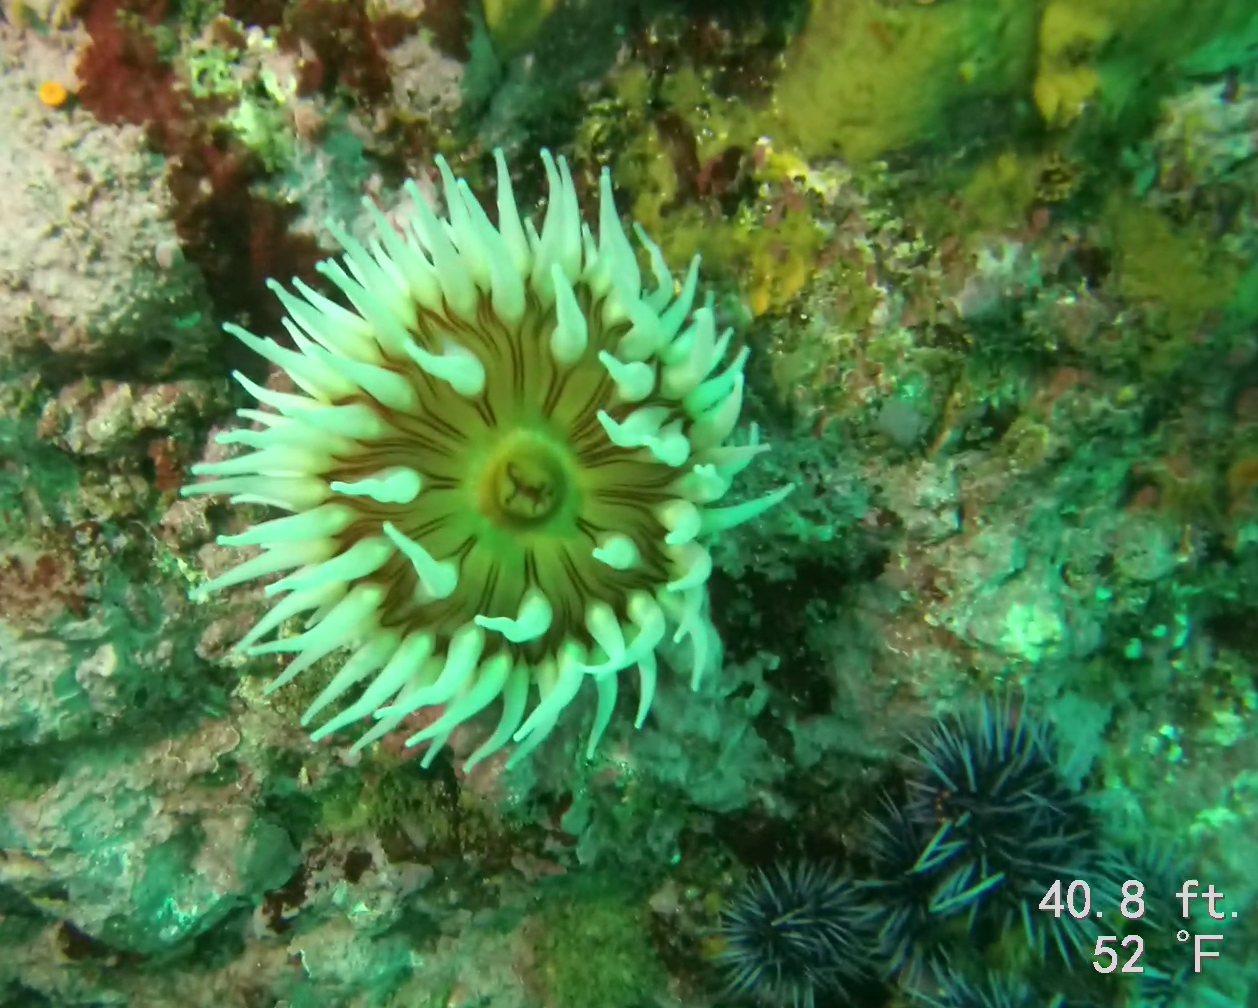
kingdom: Animalia
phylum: Cnidaria
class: Anthozoa
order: Actiniaria
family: Actiniidae
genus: Urticina
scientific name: Urticina piscivora
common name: Velvety red anemone
